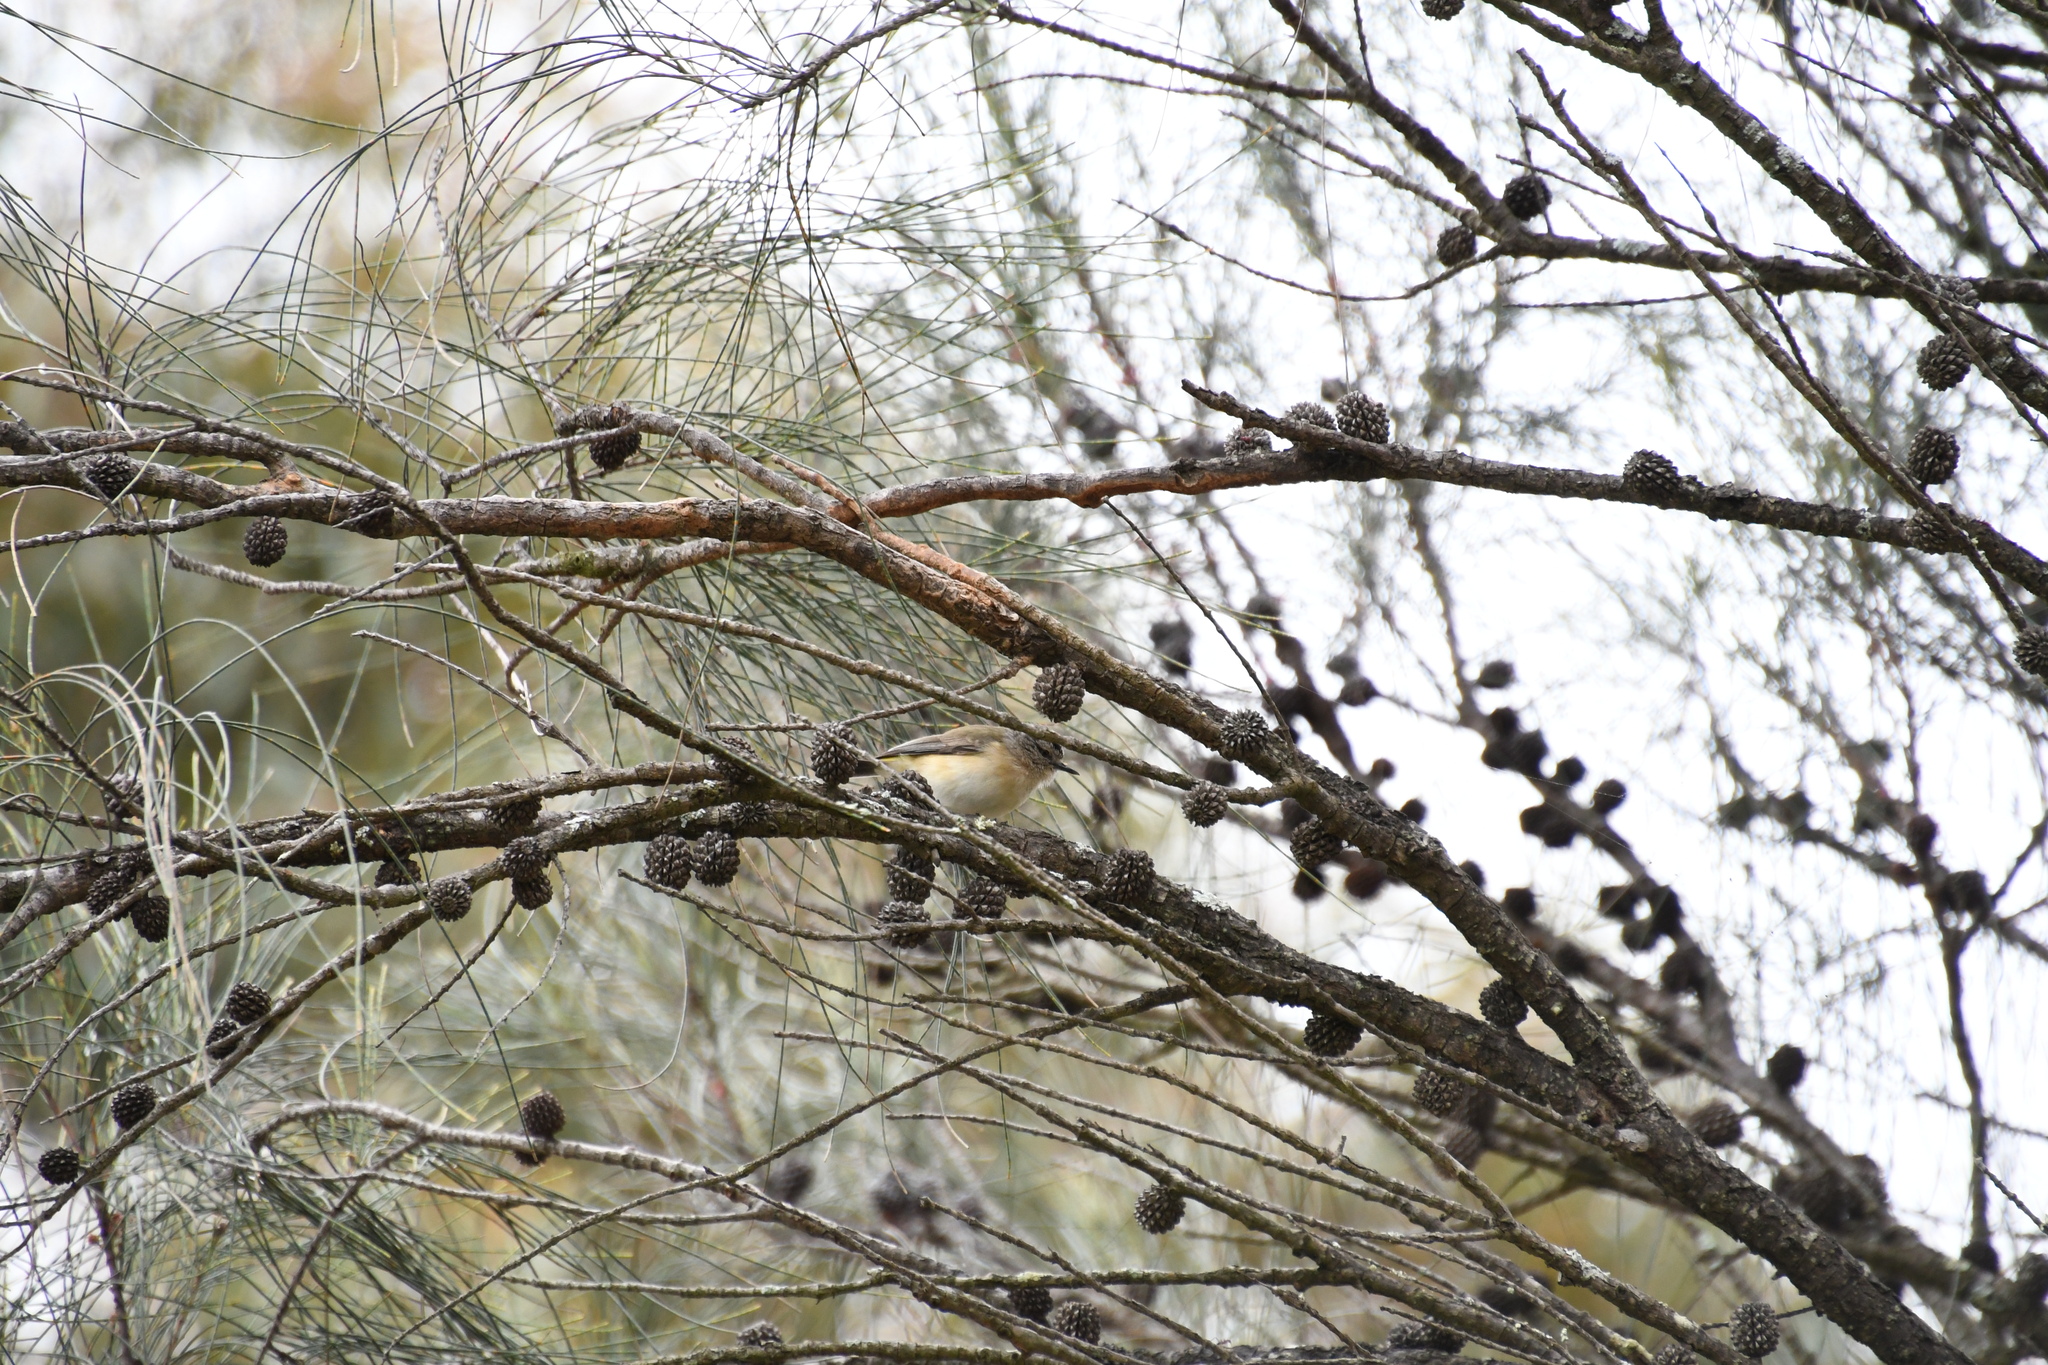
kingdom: Animalia
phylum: Chordata
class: Aves
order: Passeriformes
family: Acanthizidae
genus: Acanthiza
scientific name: Acanthiza chrysorrhoa
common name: Yellow-rumped thornbill
